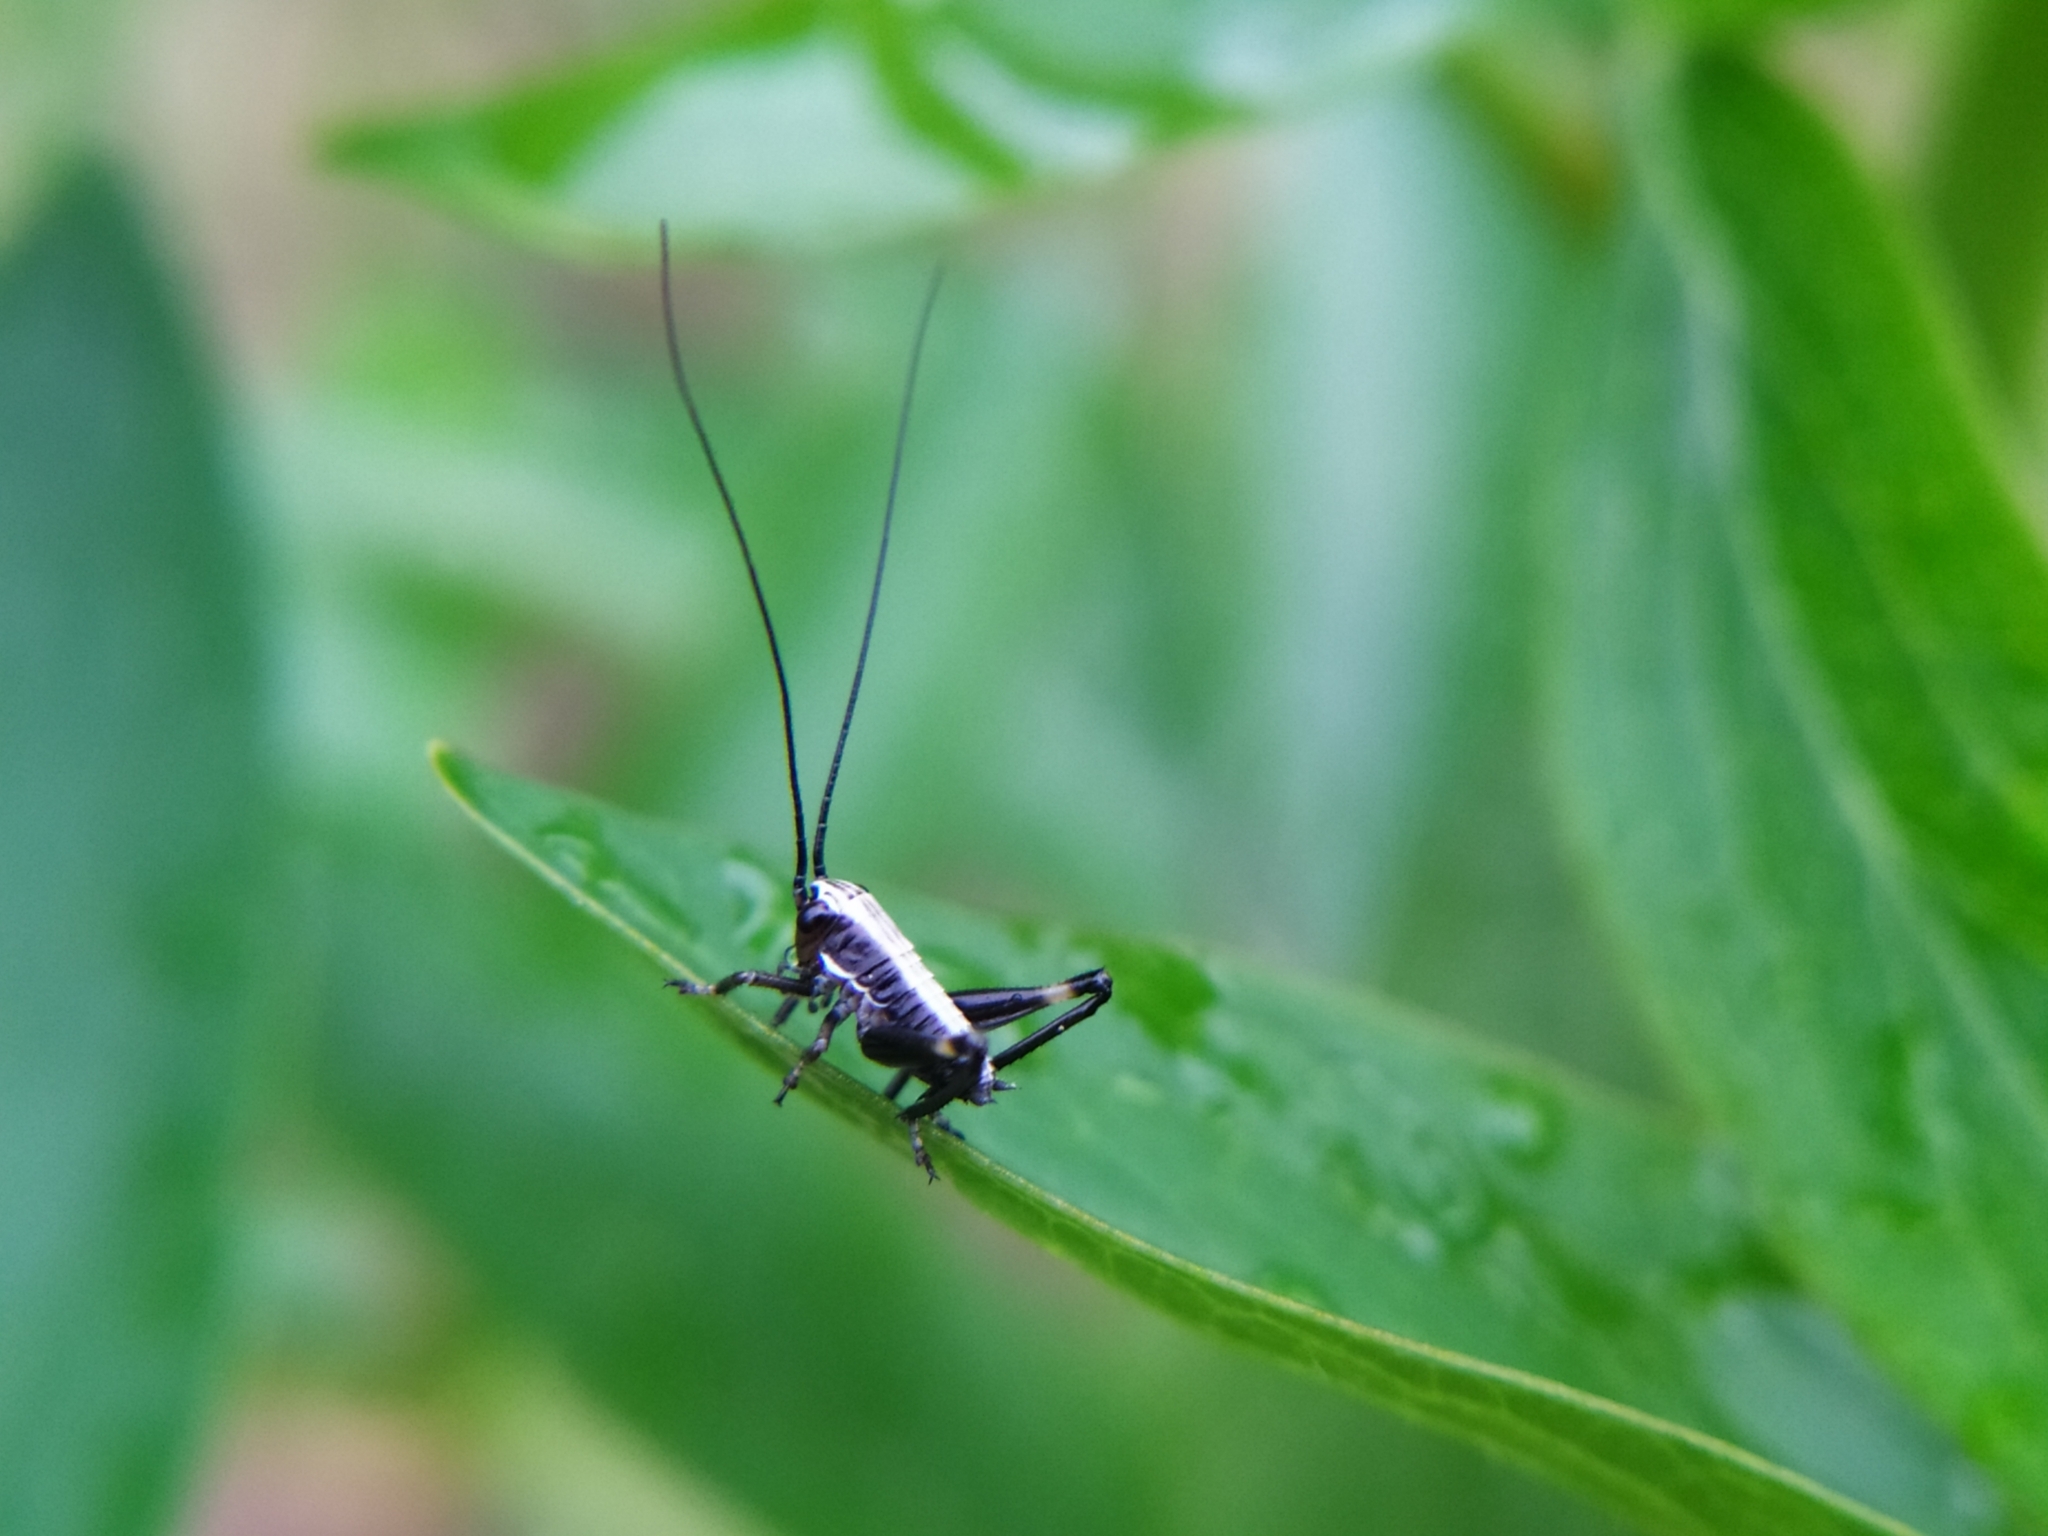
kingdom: Animalia
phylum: Arthropoda
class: Insecta
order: Orthoptera
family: Tettigoniidae
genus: Pachytrachis
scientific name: Pachytrachis gracilis
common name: Graceful bush-cricket
